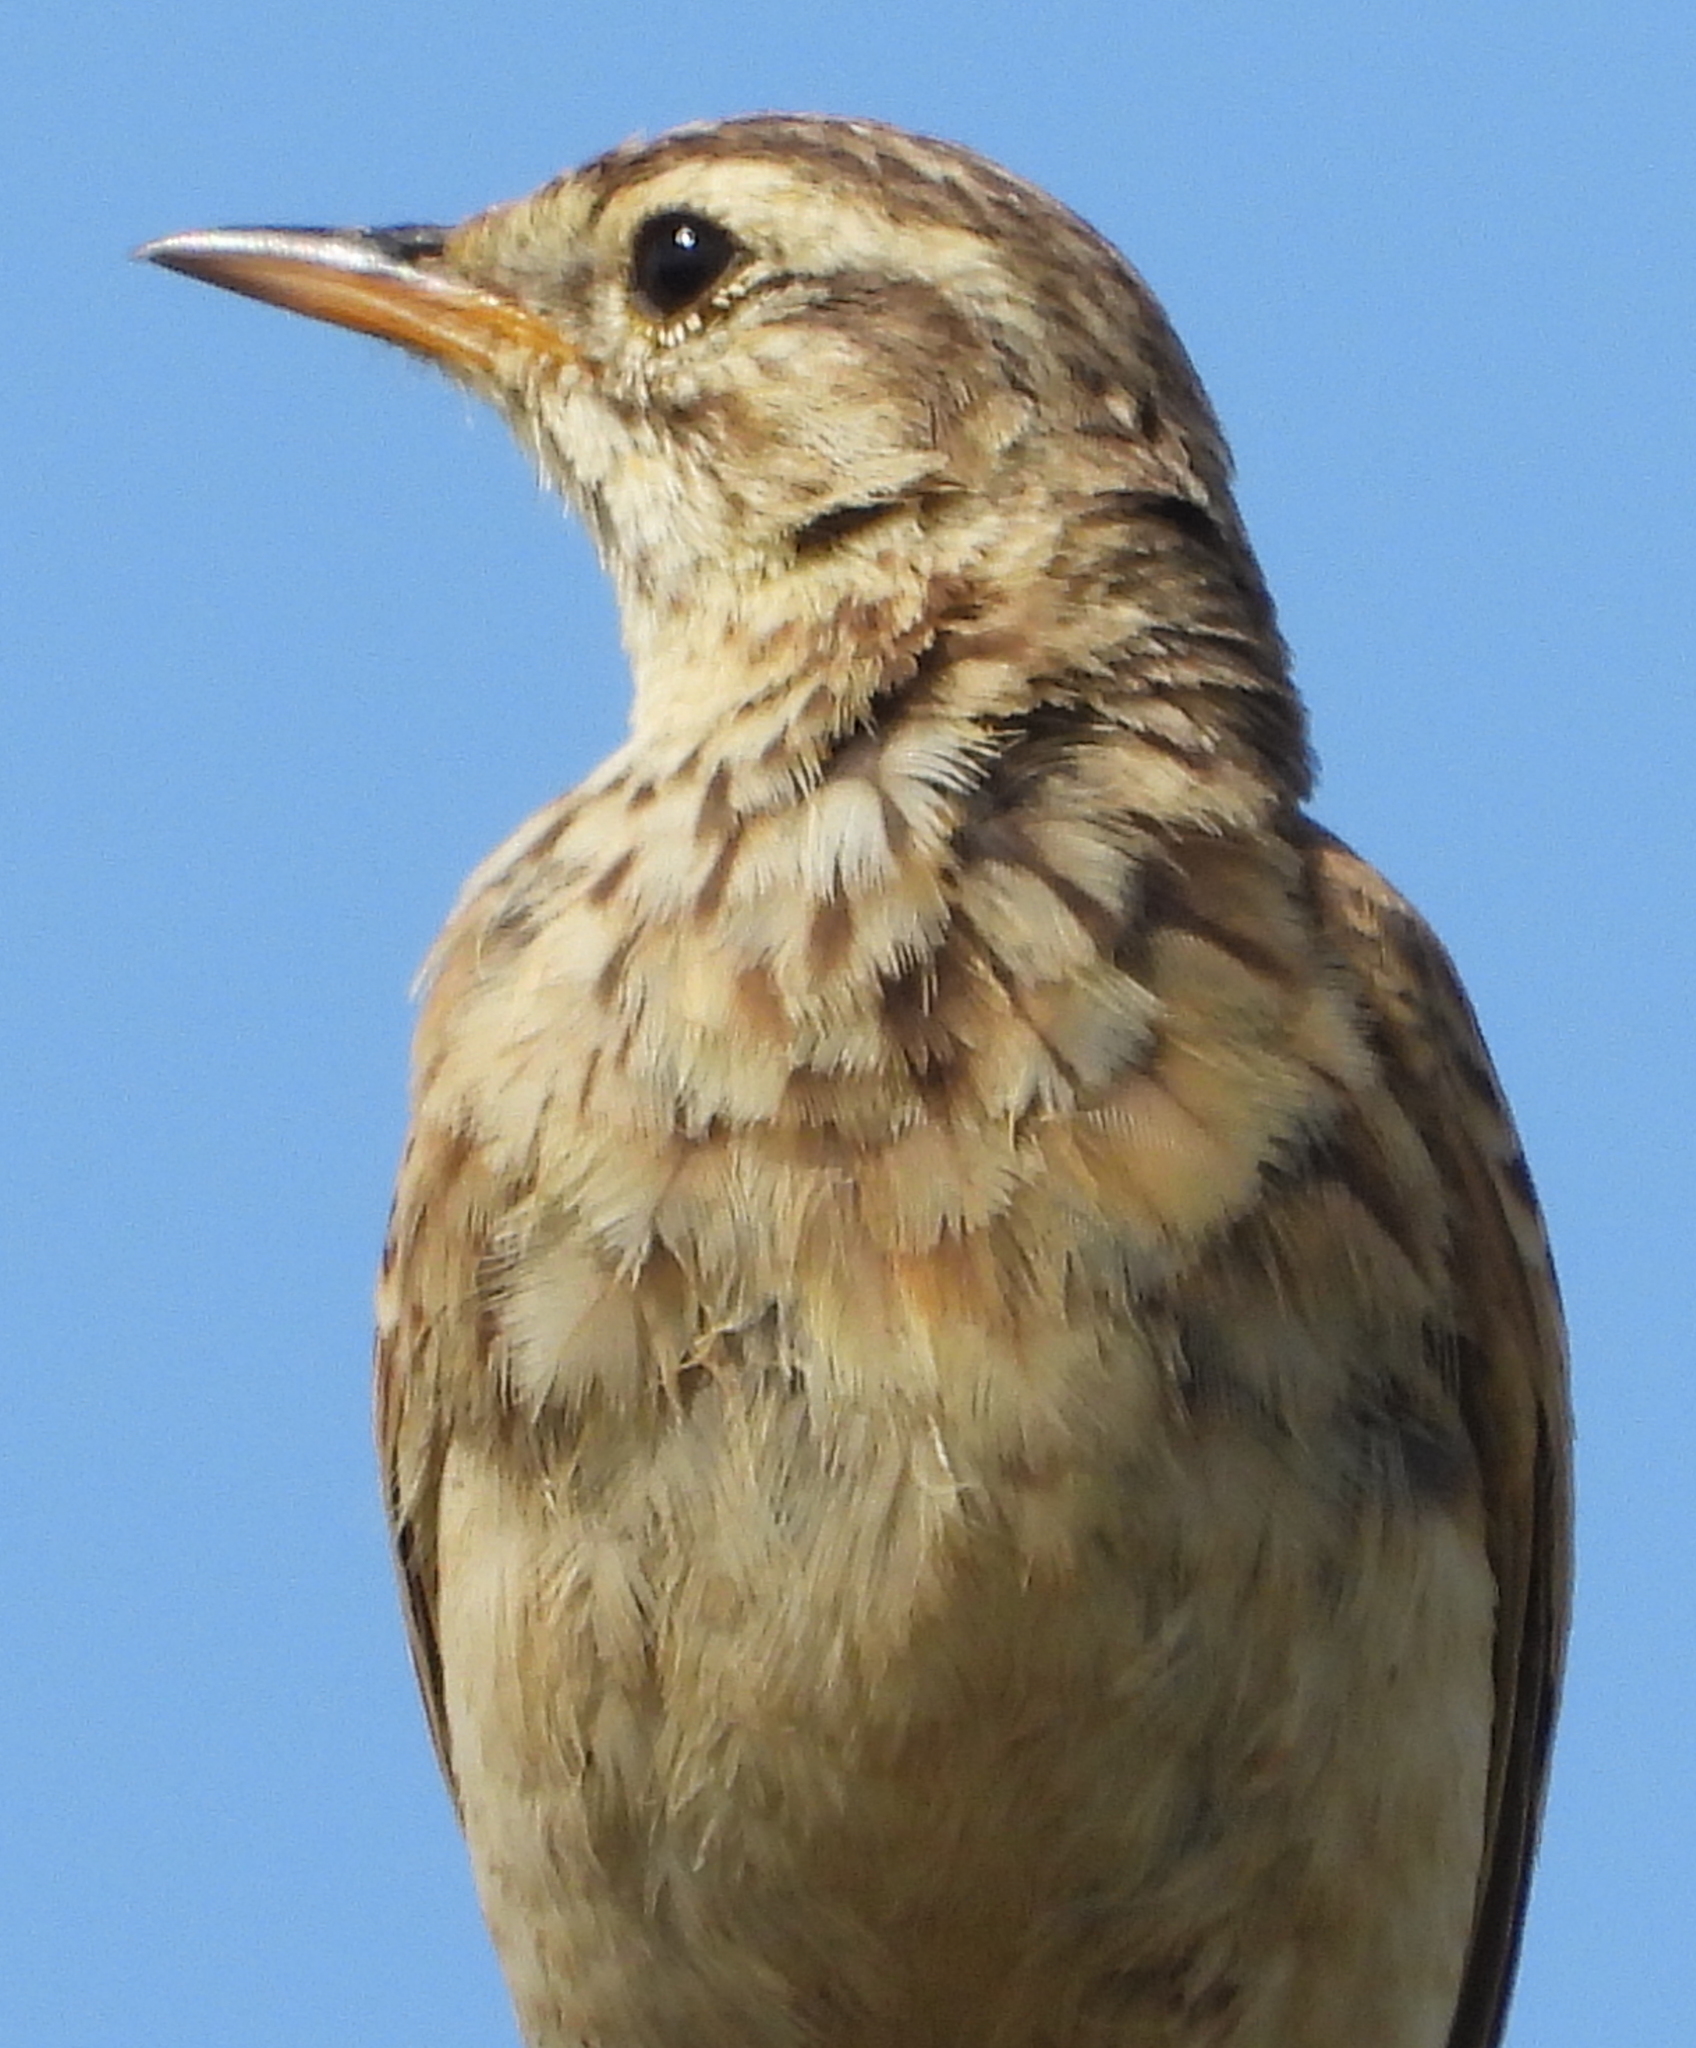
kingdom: Animalia
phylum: Chordata
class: Aves
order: Passeriformes
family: Motacillidae
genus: Anthus
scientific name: Anthus cinnamomeus
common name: African pipit
